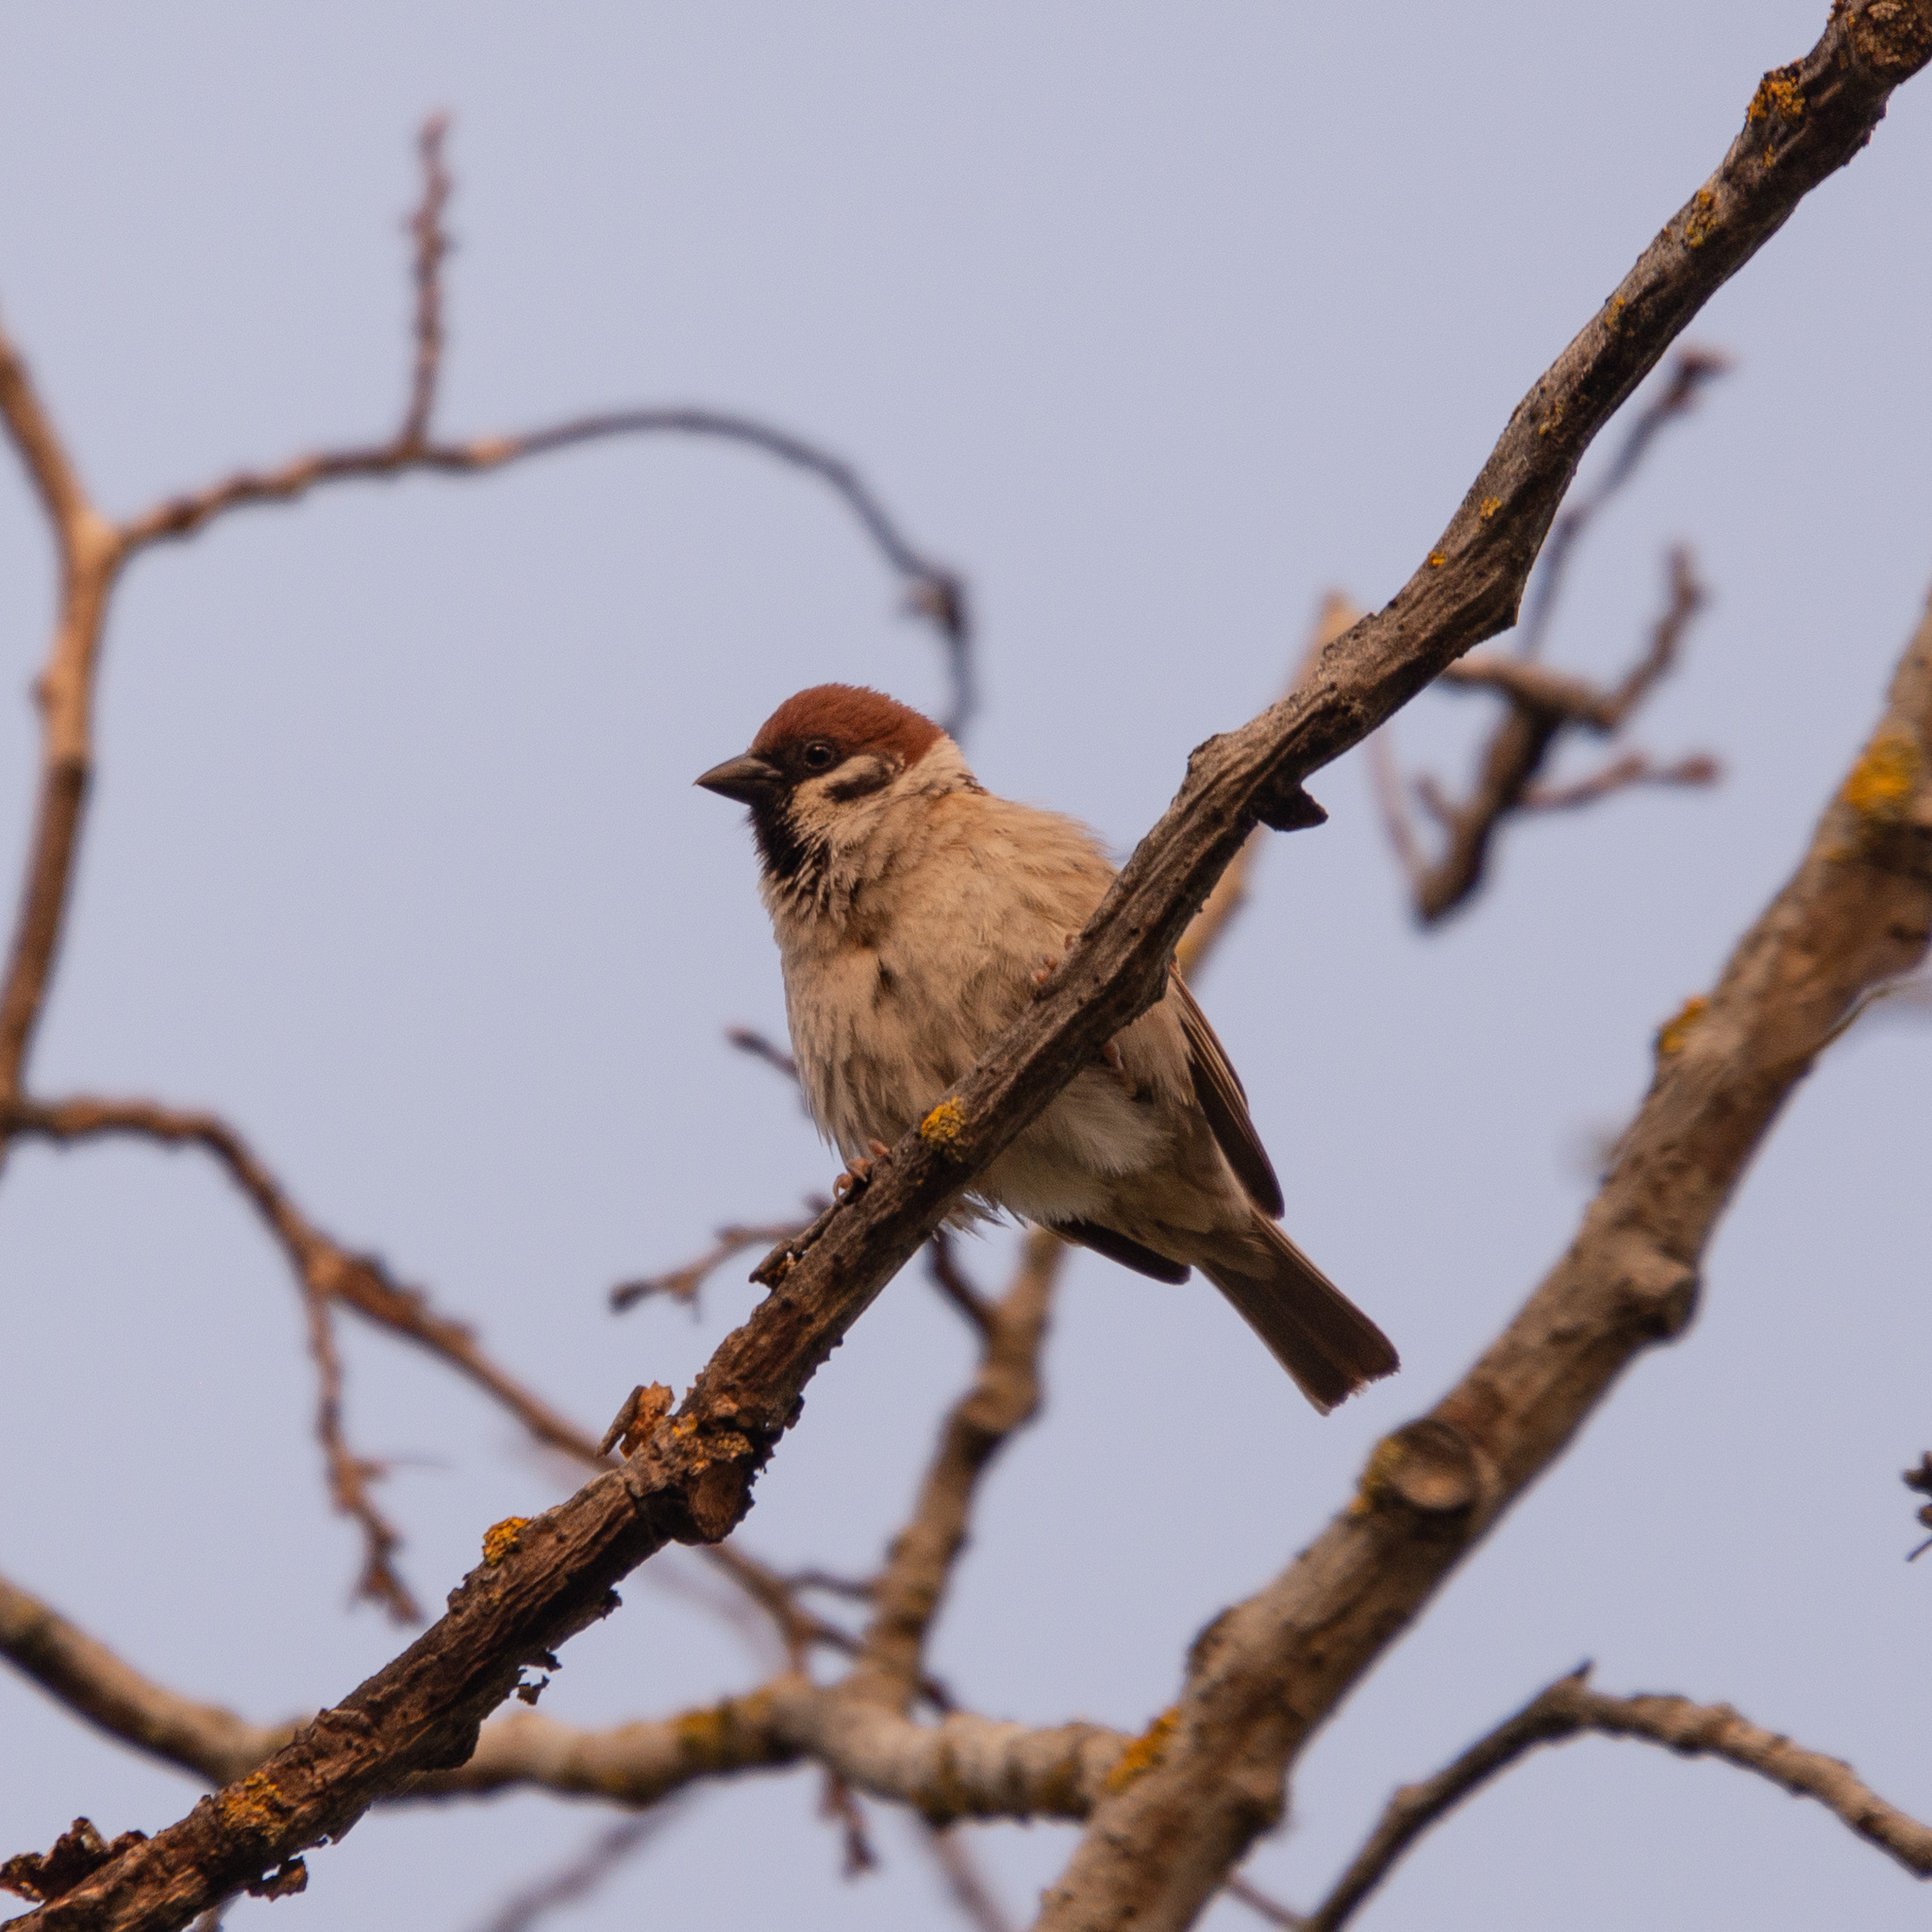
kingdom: Animalia
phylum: Chordata
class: Aves
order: Passeriformes
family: Passeridae
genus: Passer
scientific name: Passer montanus
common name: Eurasian tree sparrow
